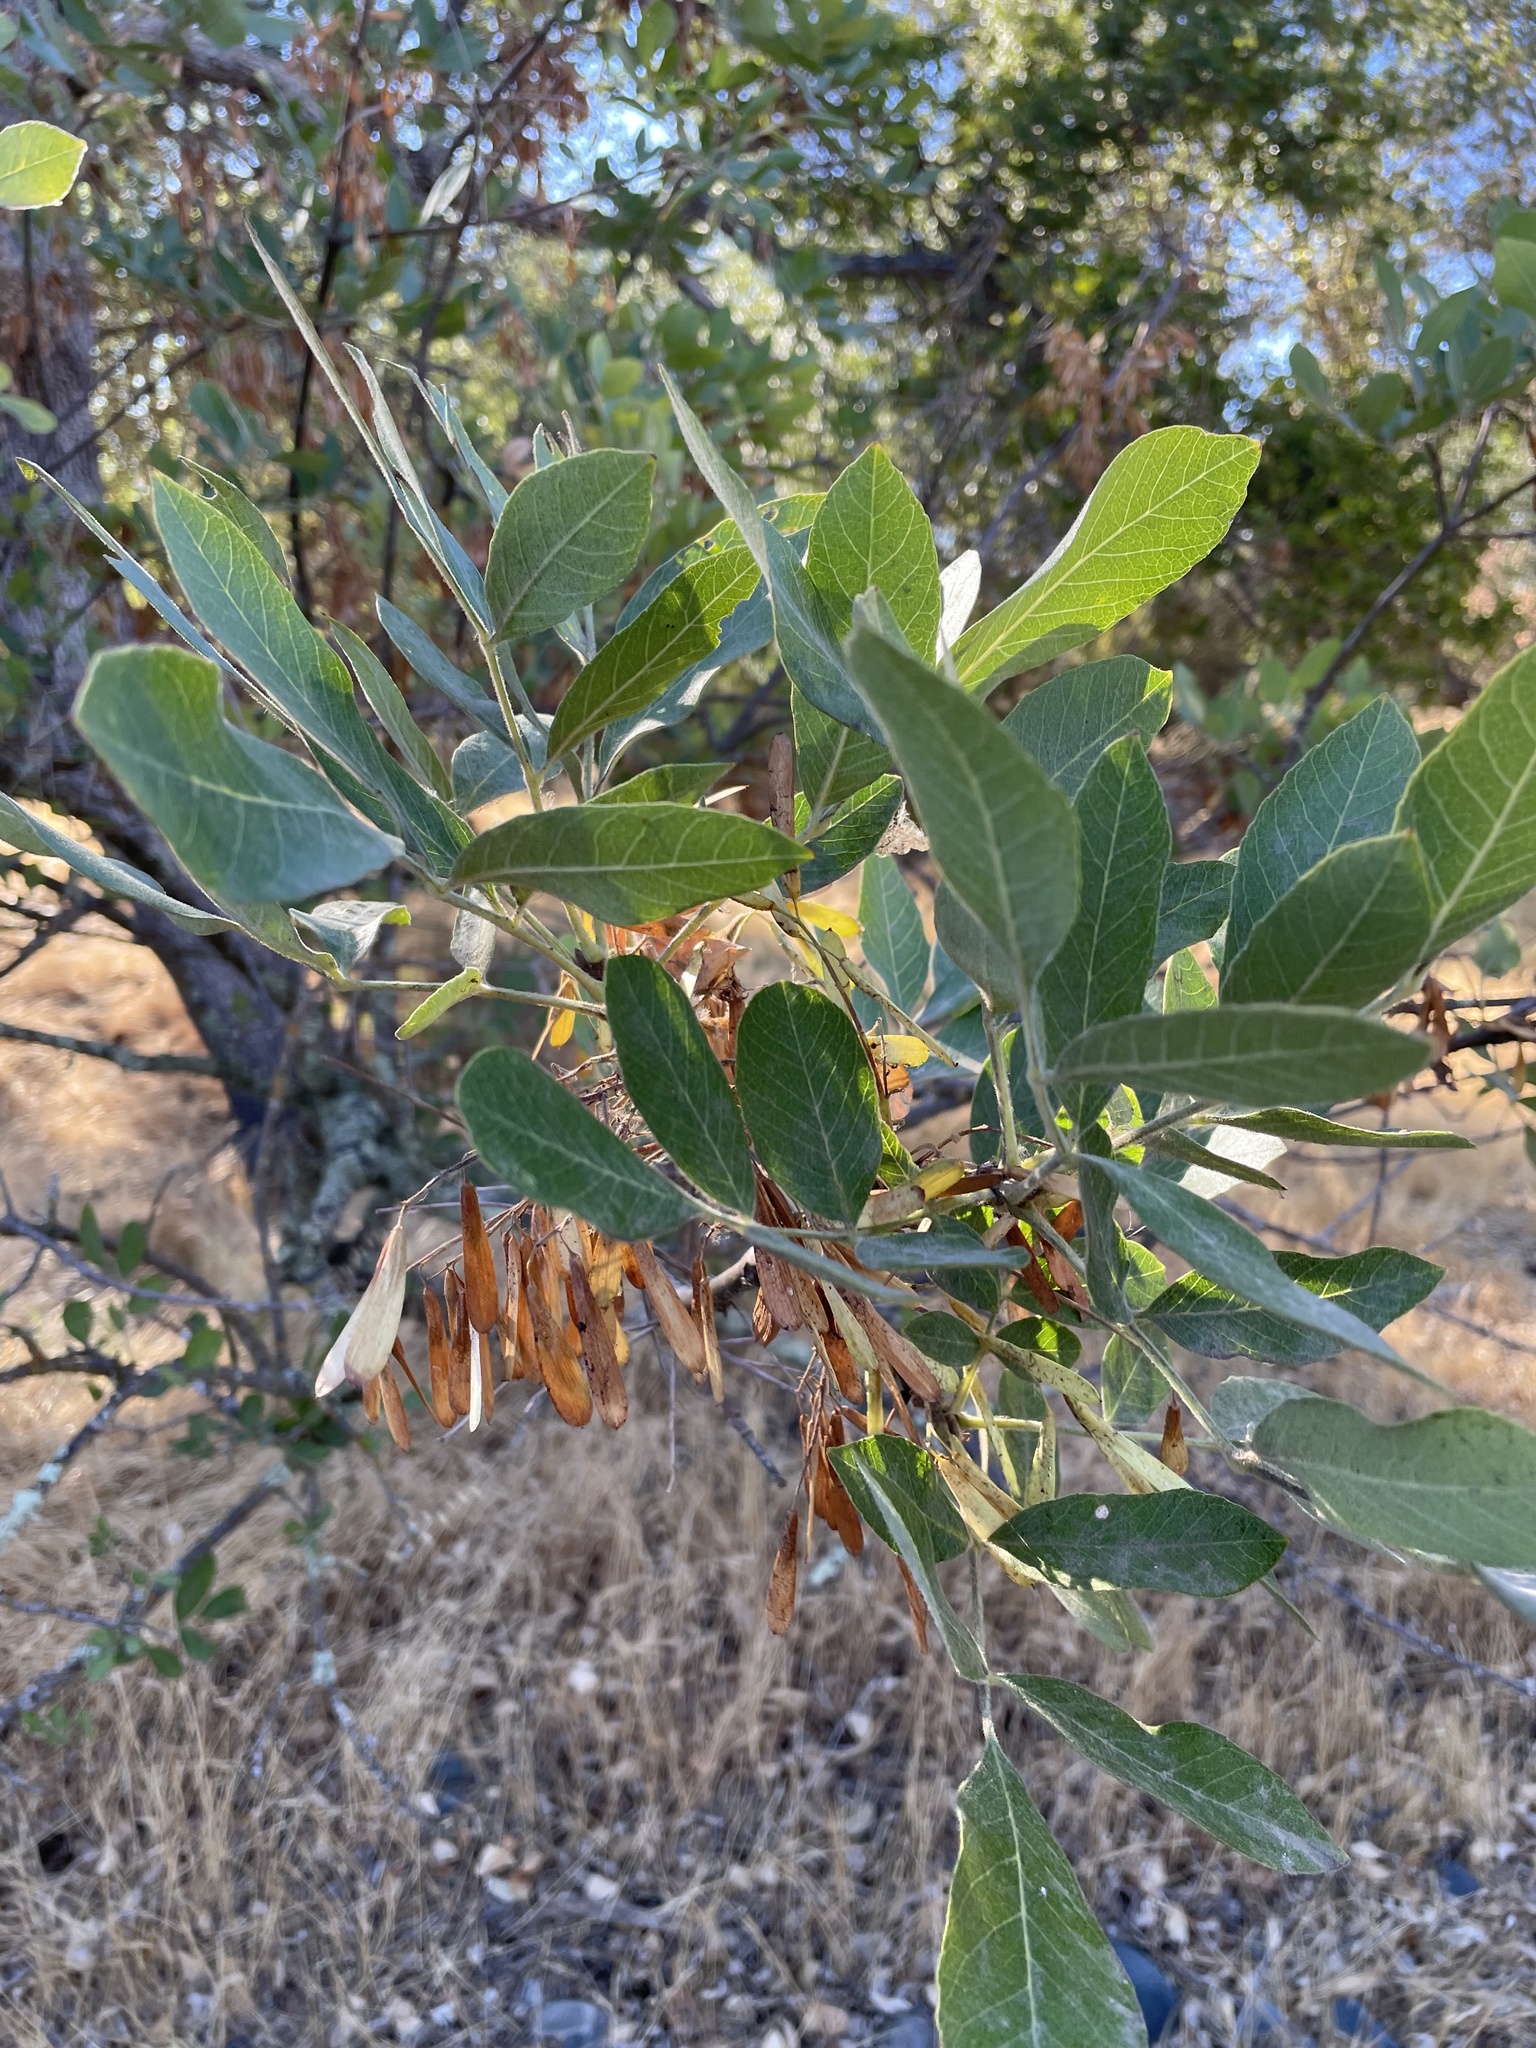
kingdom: Plantae
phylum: Tracheophyta
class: Magnoliopsida
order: Lamiales
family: Oleaceae
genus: Fraxinus
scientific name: Fraxinus latifolia
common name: Oregon ash
